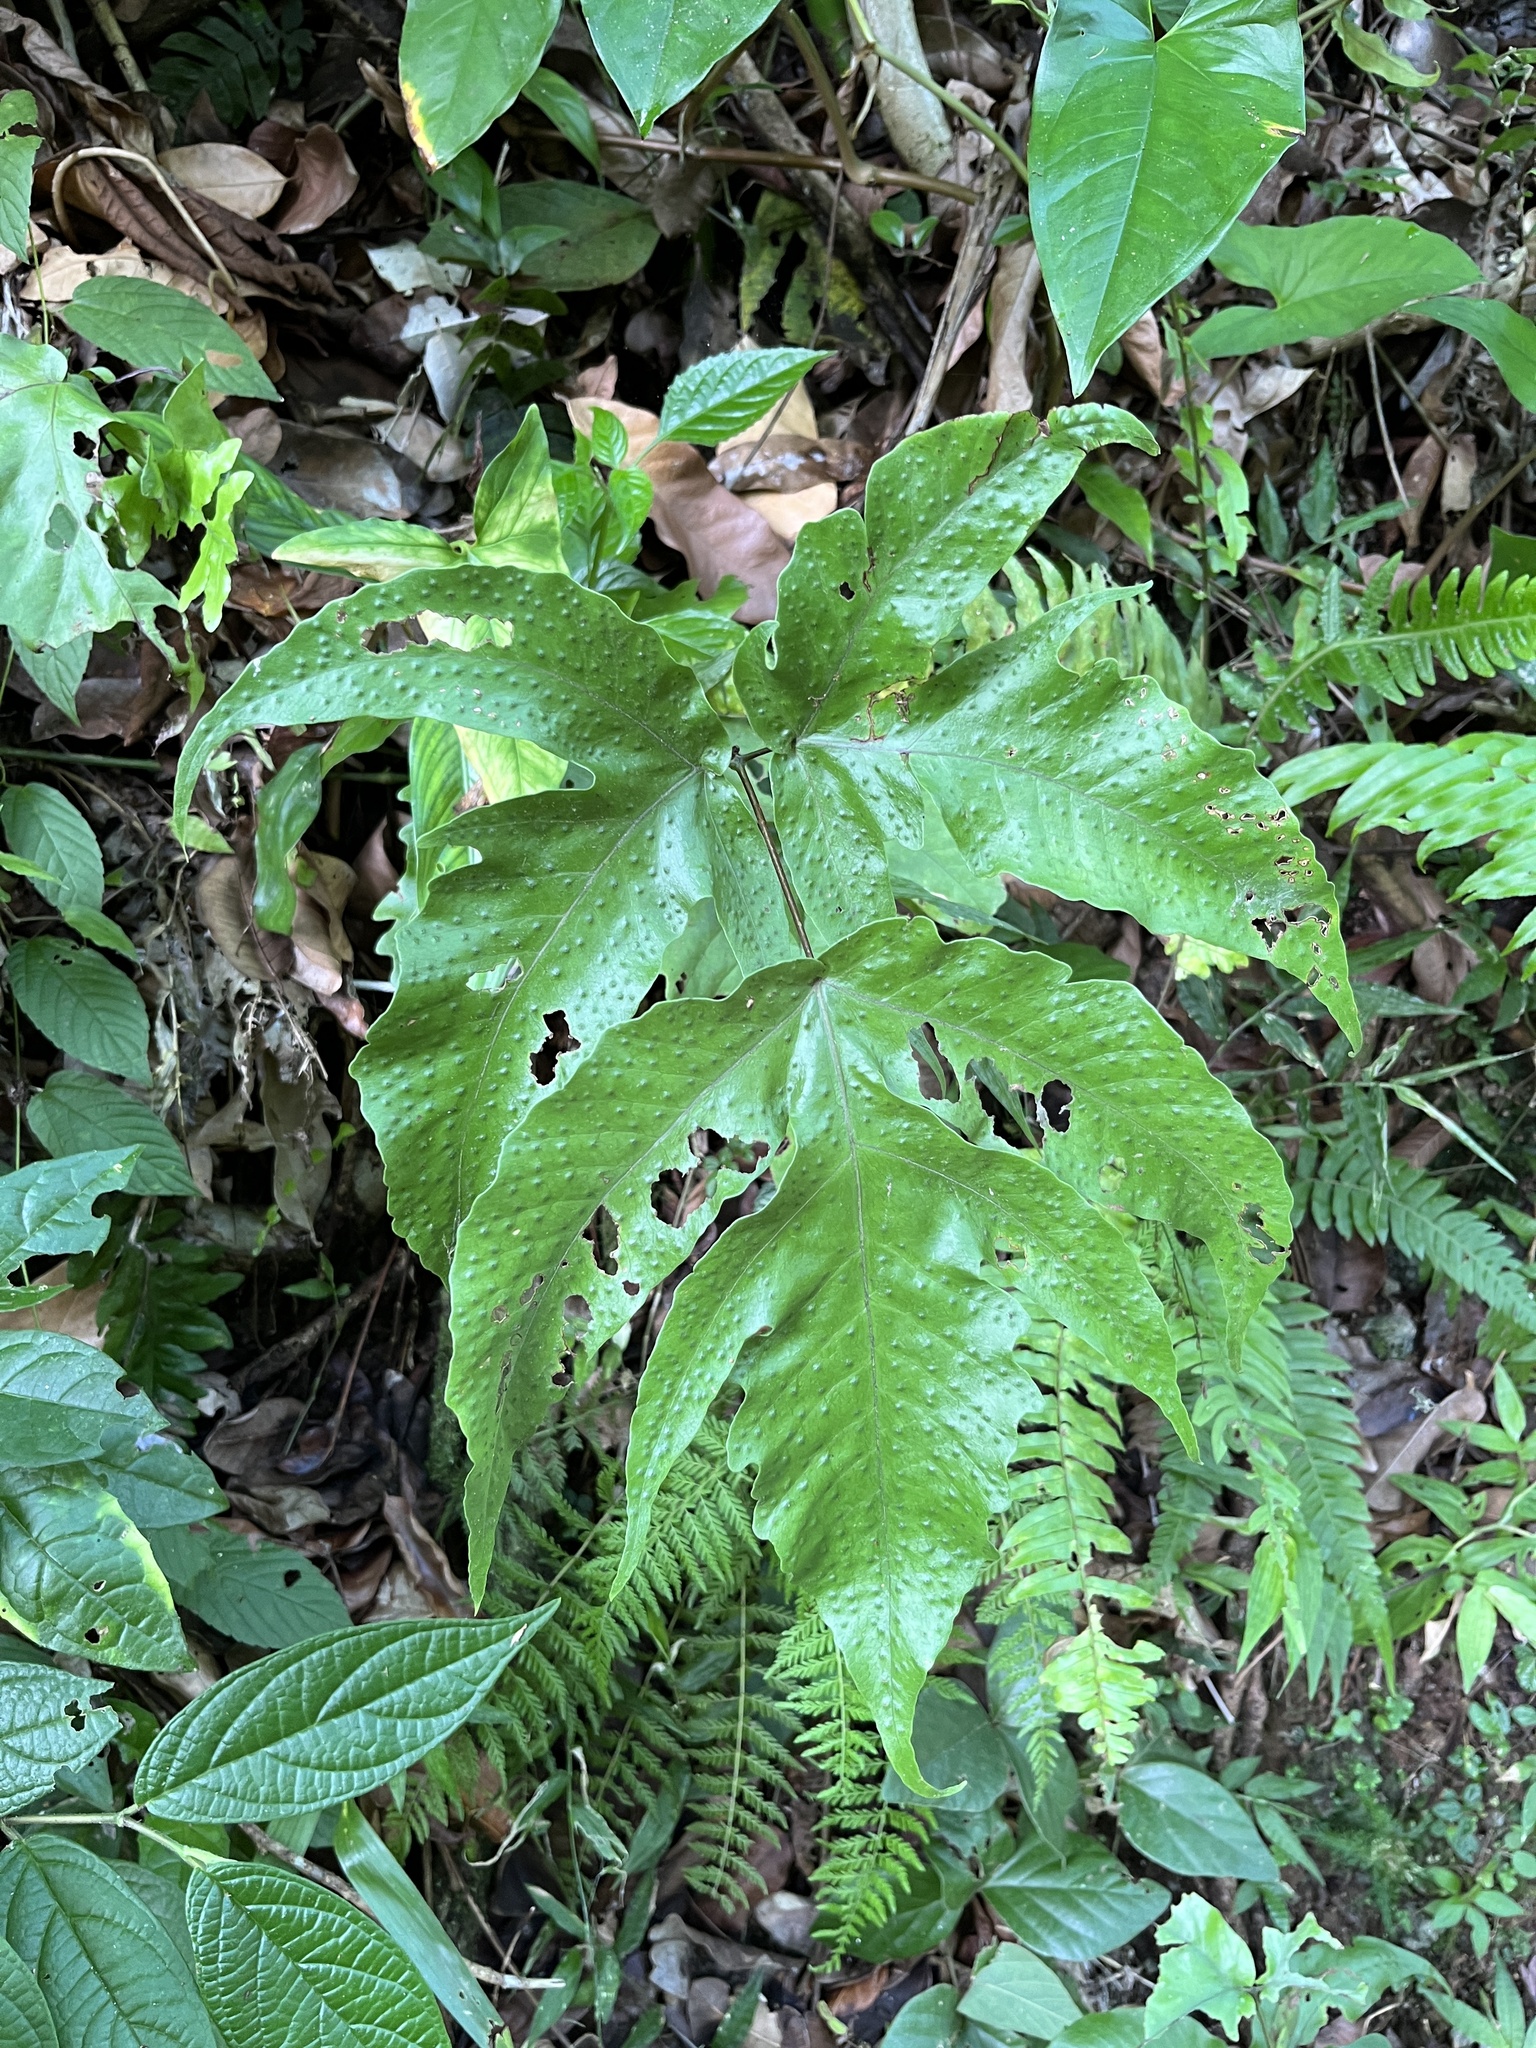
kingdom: Plantae
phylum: Tracheophyta
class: Polypodiopsida
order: Polypodiales
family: Tectariaceae
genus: Tectaria
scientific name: Tectaria heracleifolia
